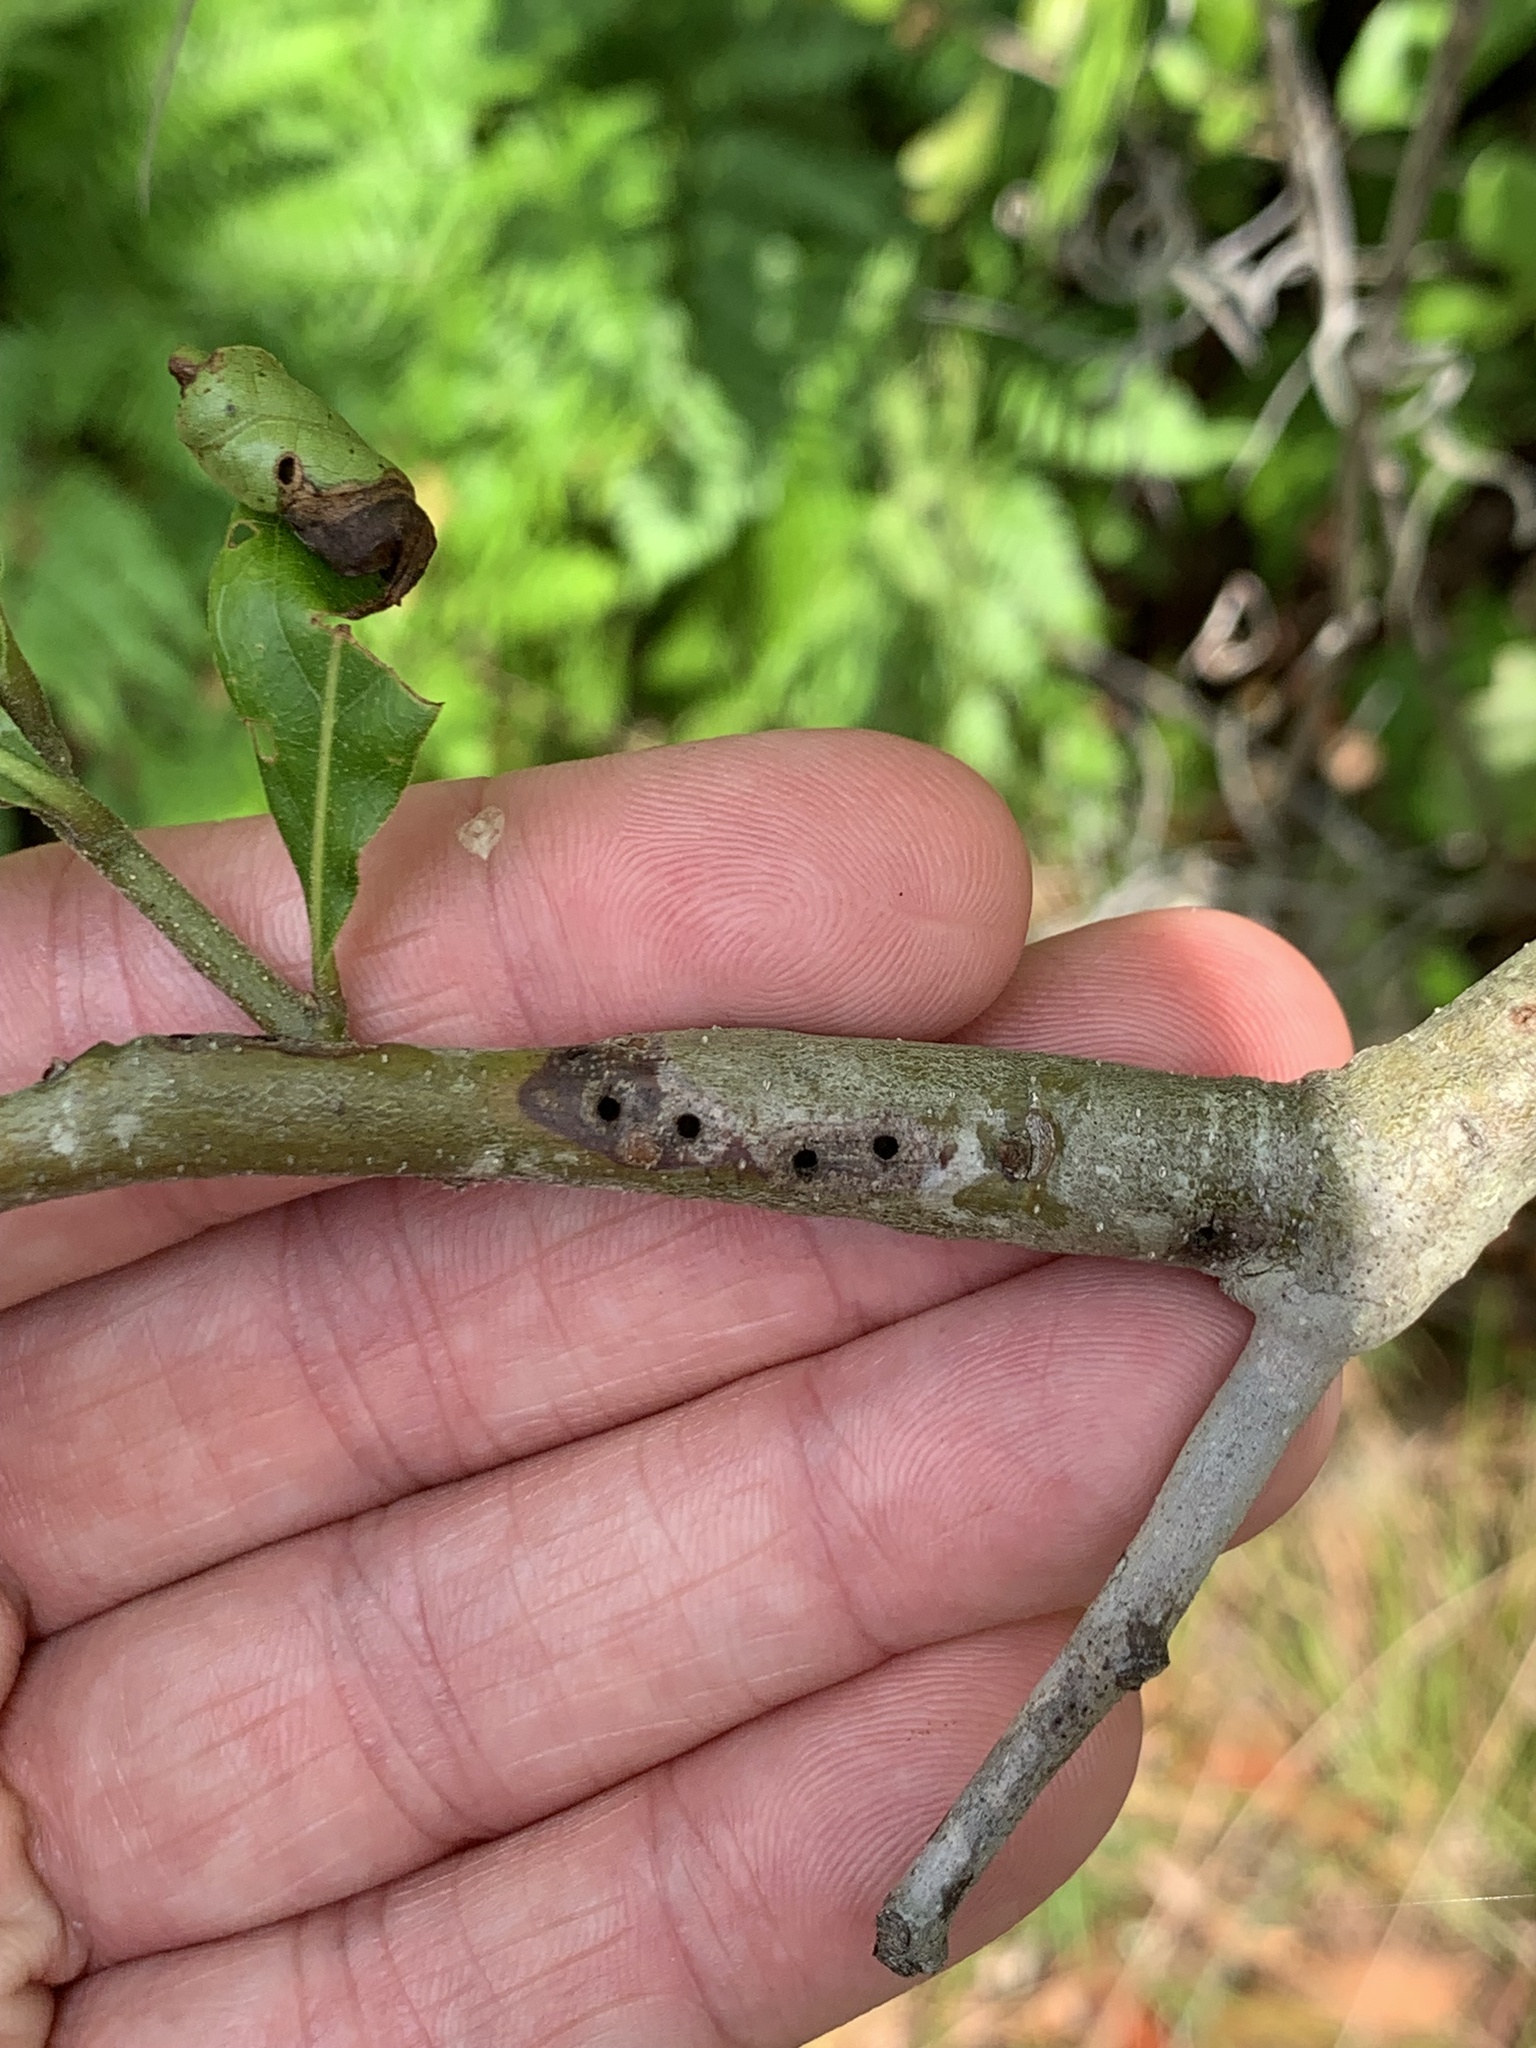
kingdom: Animalia
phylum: Arthropoda
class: Insecta
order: Hymenoptera
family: Cynipidae
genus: Callirhytis
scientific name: Callirhytis
